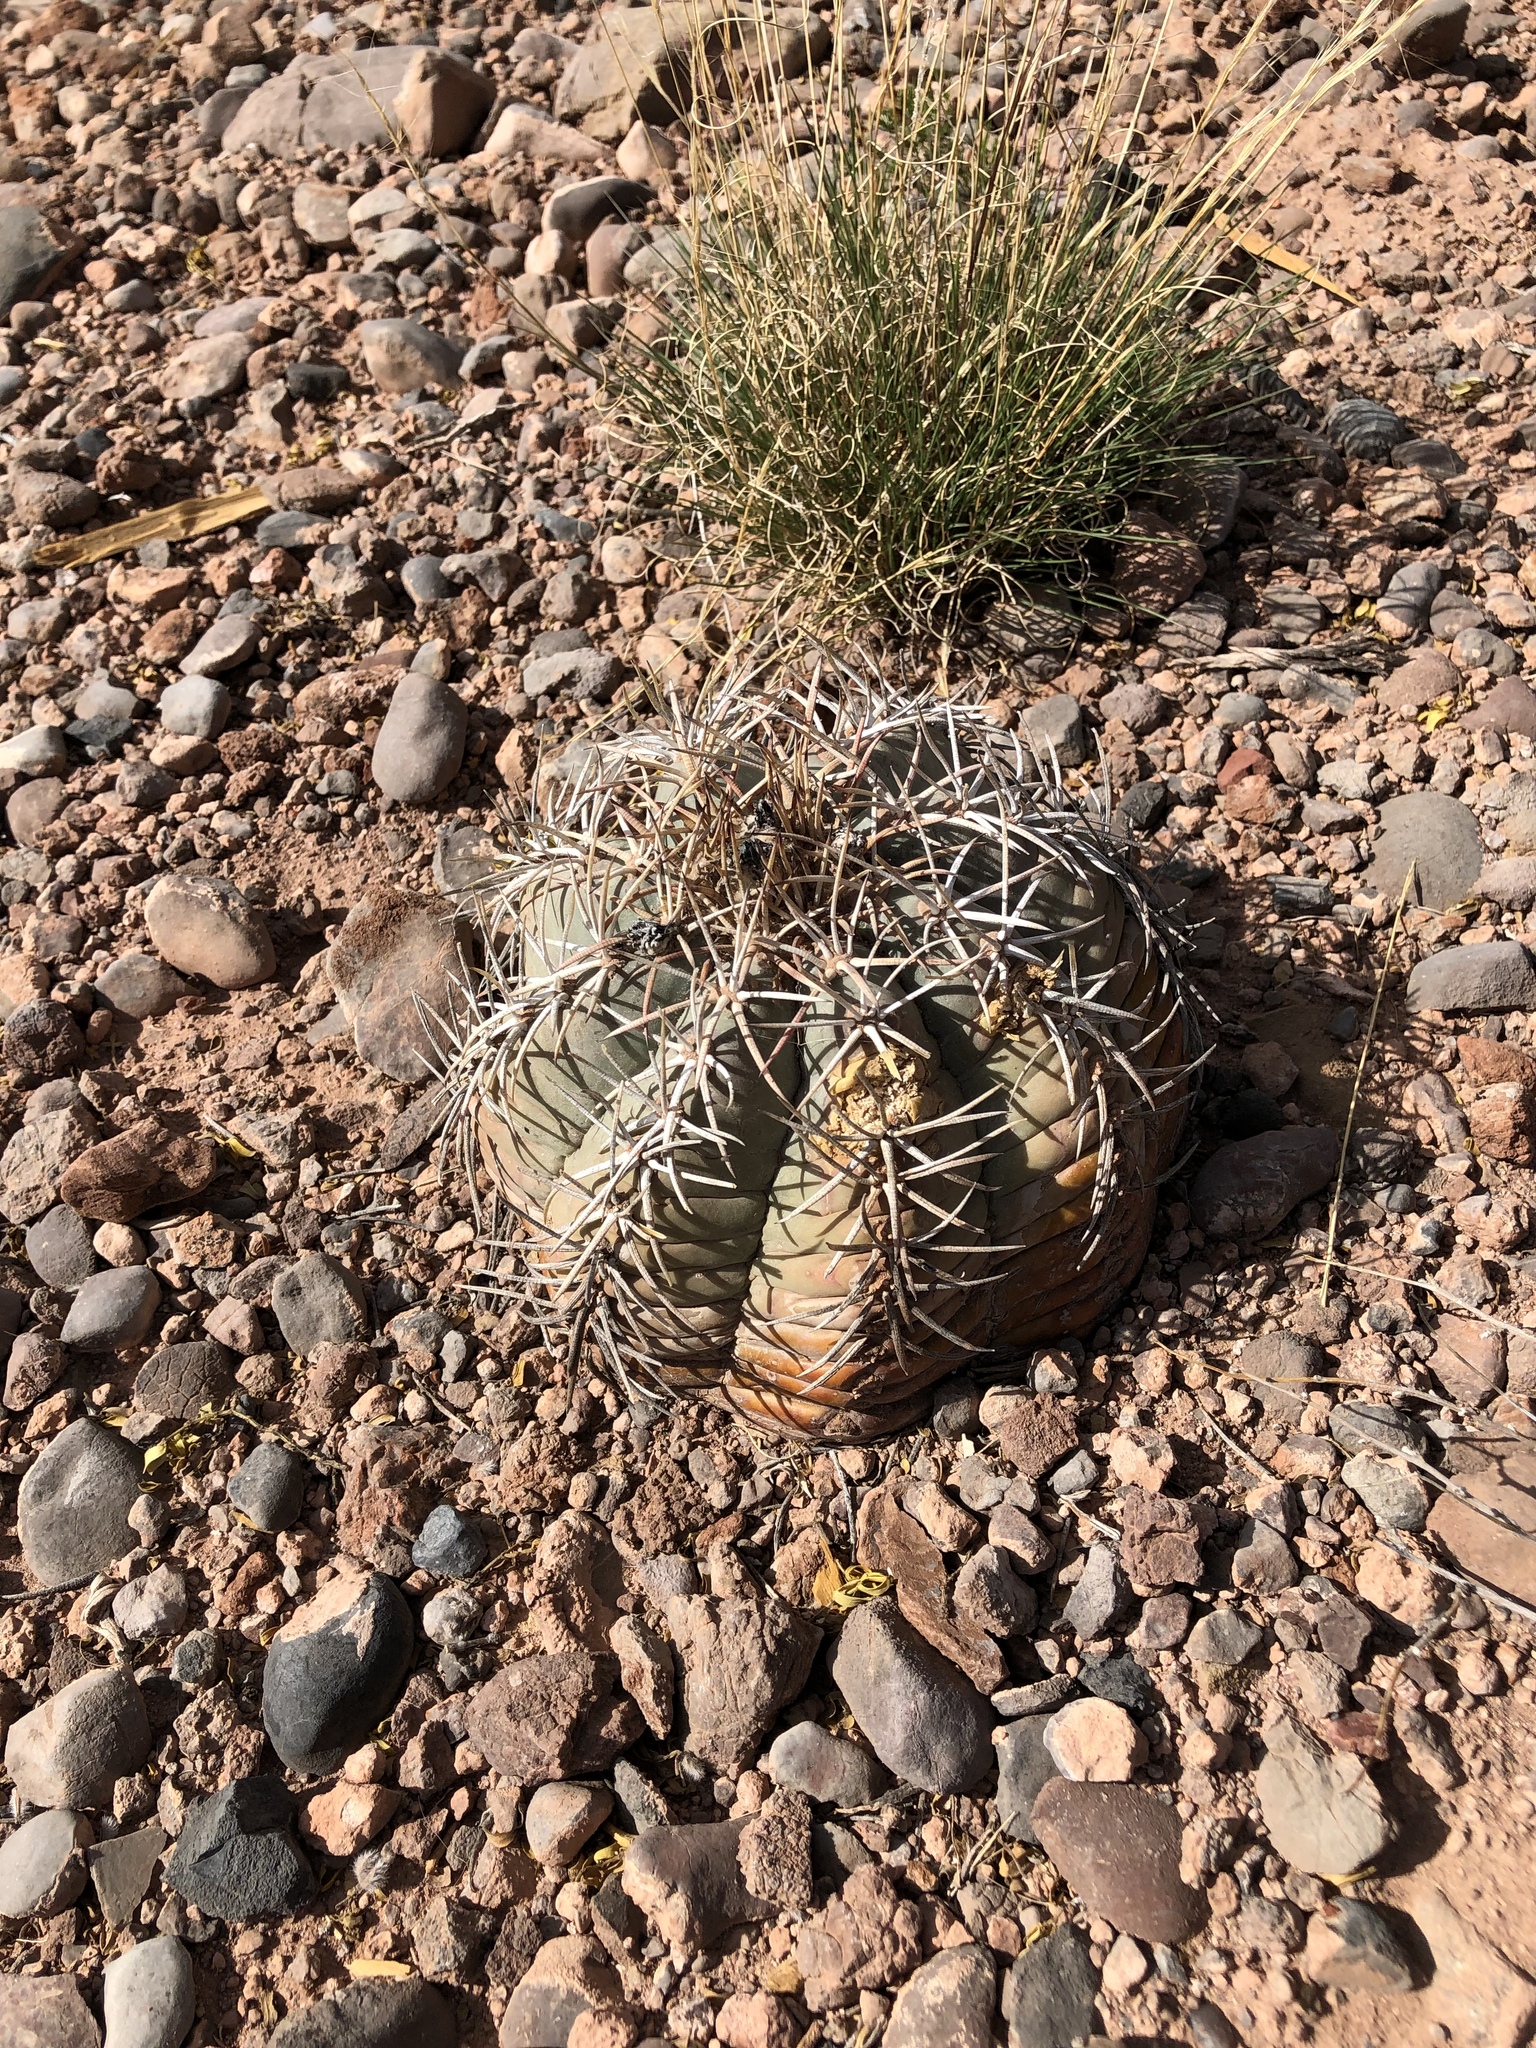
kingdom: Plantae
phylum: Tracheophyta
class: Magnoliopsida
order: Caryophyllales
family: Cactaceae
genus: Echinocactus
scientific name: Echinocactus horizonthalonius
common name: Devilshead
